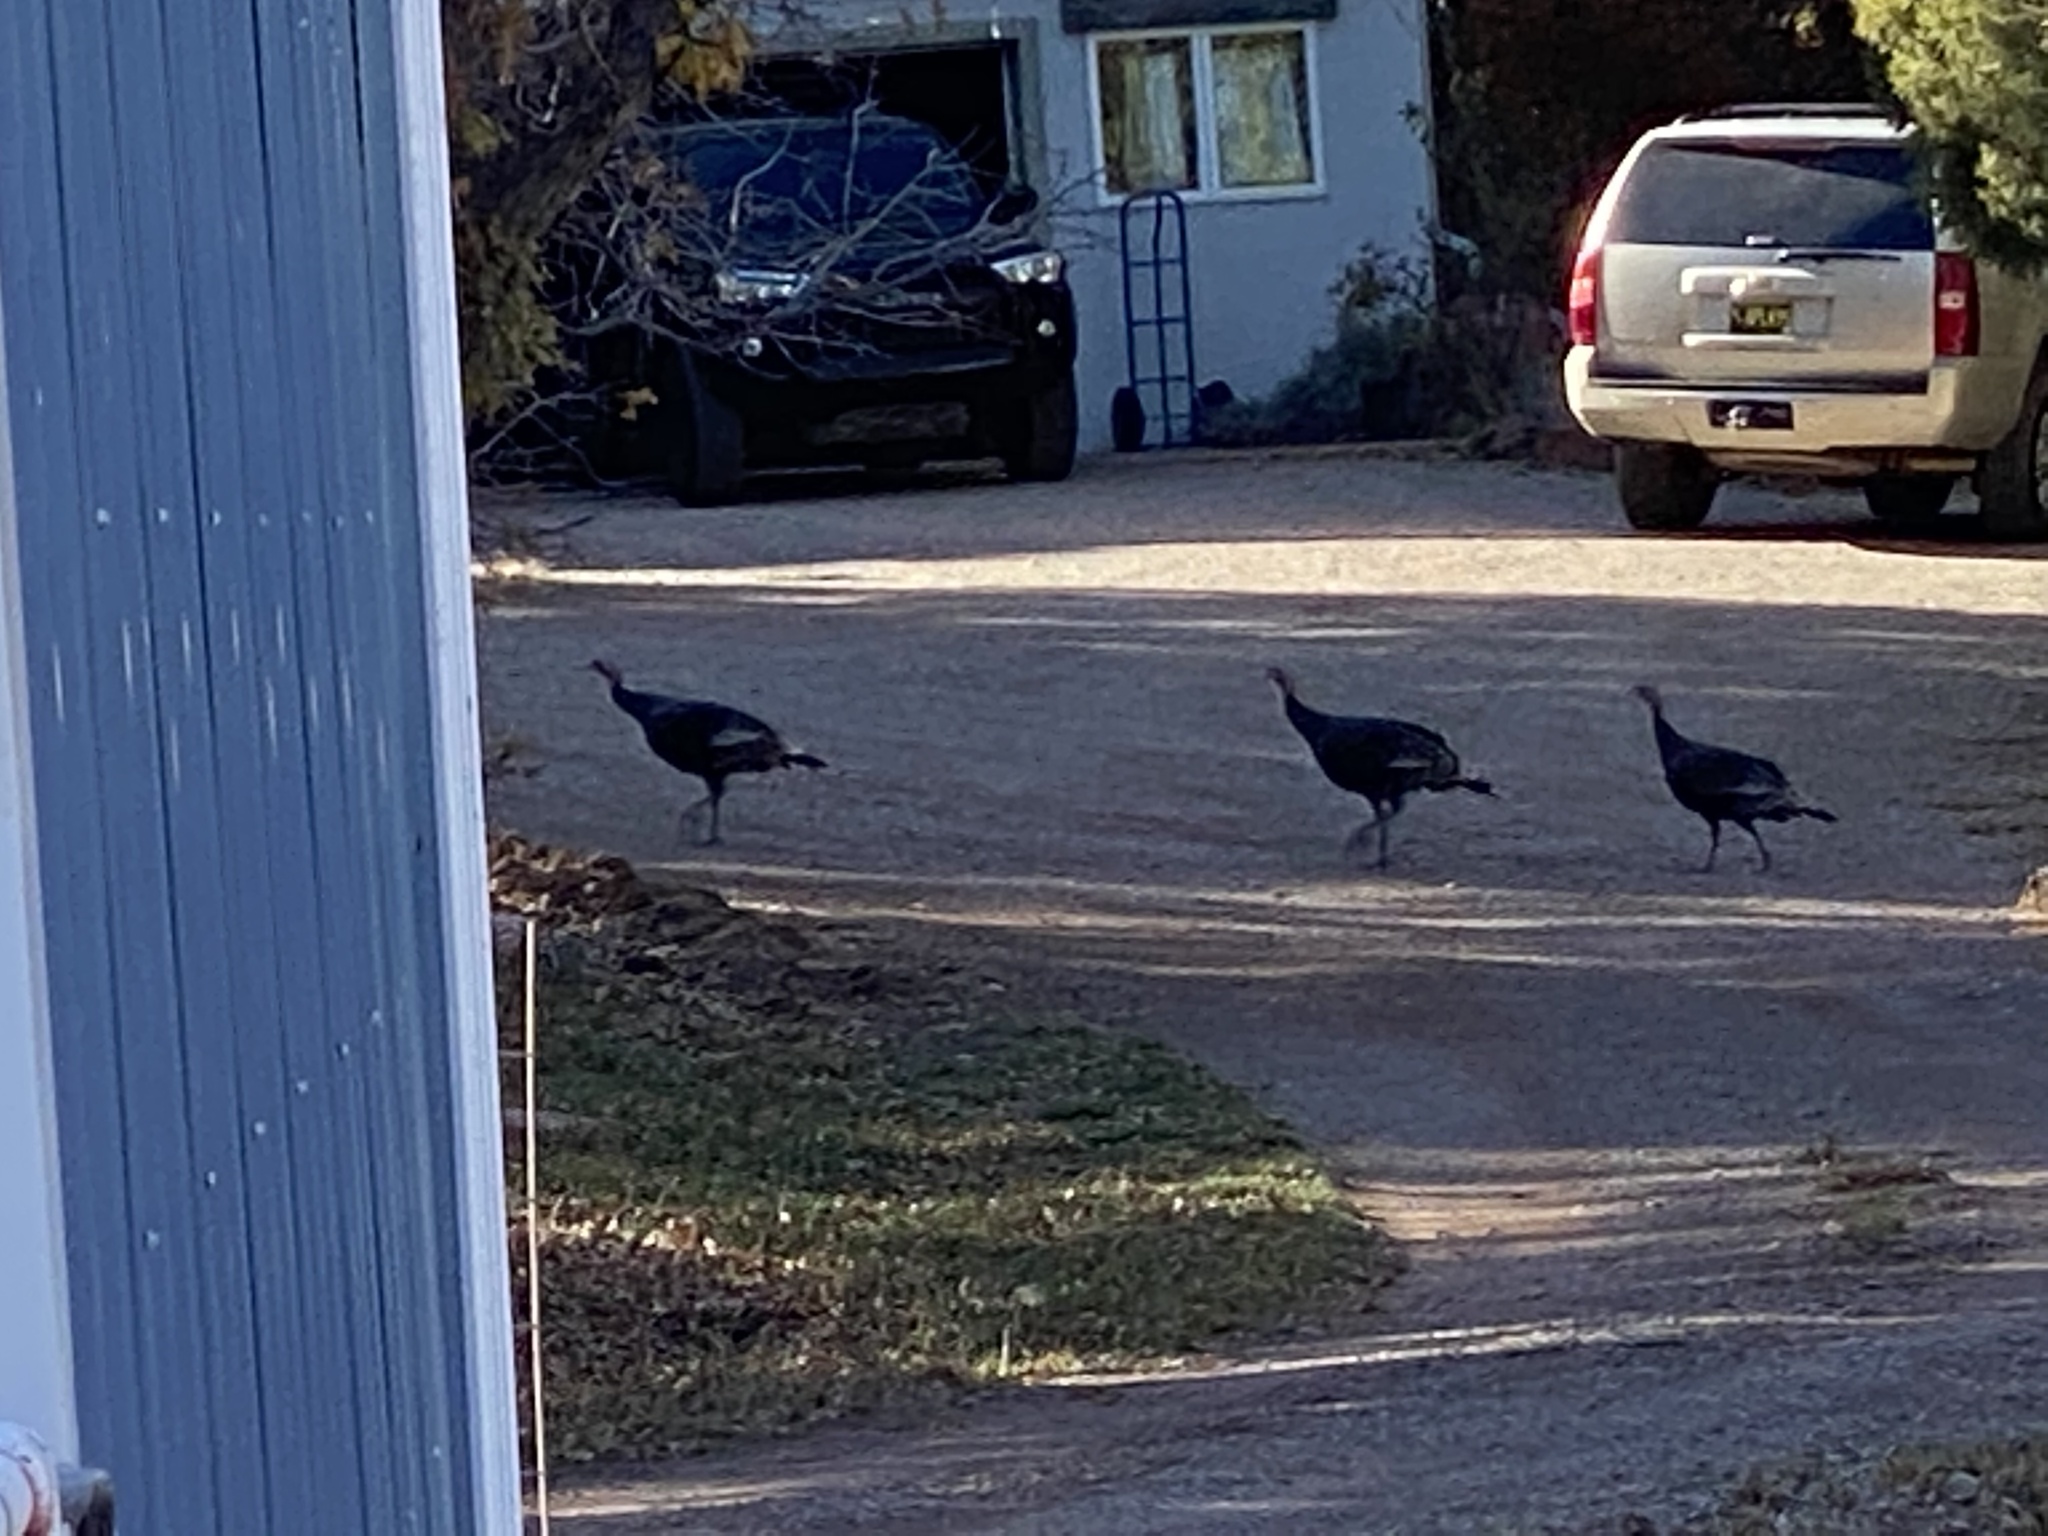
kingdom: Animalia
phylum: Chordata
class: Aves
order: Galliformes
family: Phasianidae
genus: Meleagris
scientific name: Meleagris gallopavo
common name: Wild turkey
